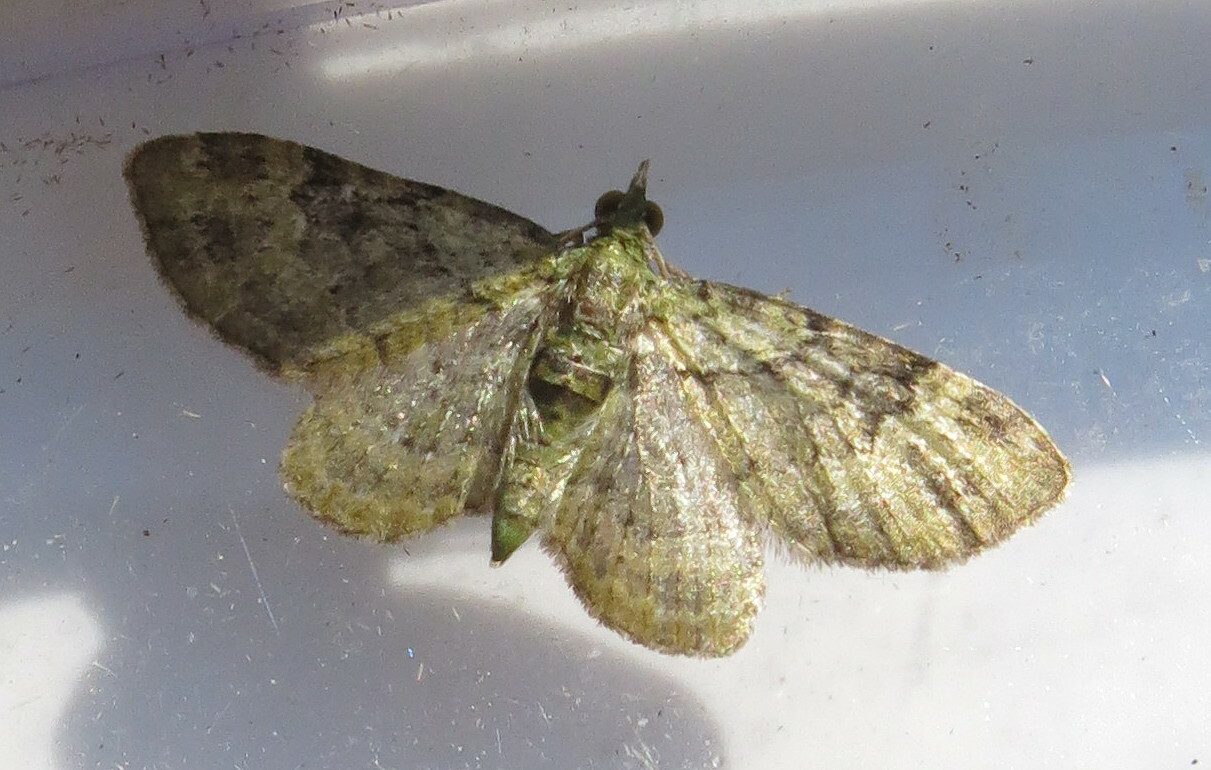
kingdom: Animalia
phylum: Arthropoda
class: Insecta
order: Lepidoptera
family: Geometridae
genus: Pasiphila
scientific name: Pasiphila rectangulata
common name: Green pug
